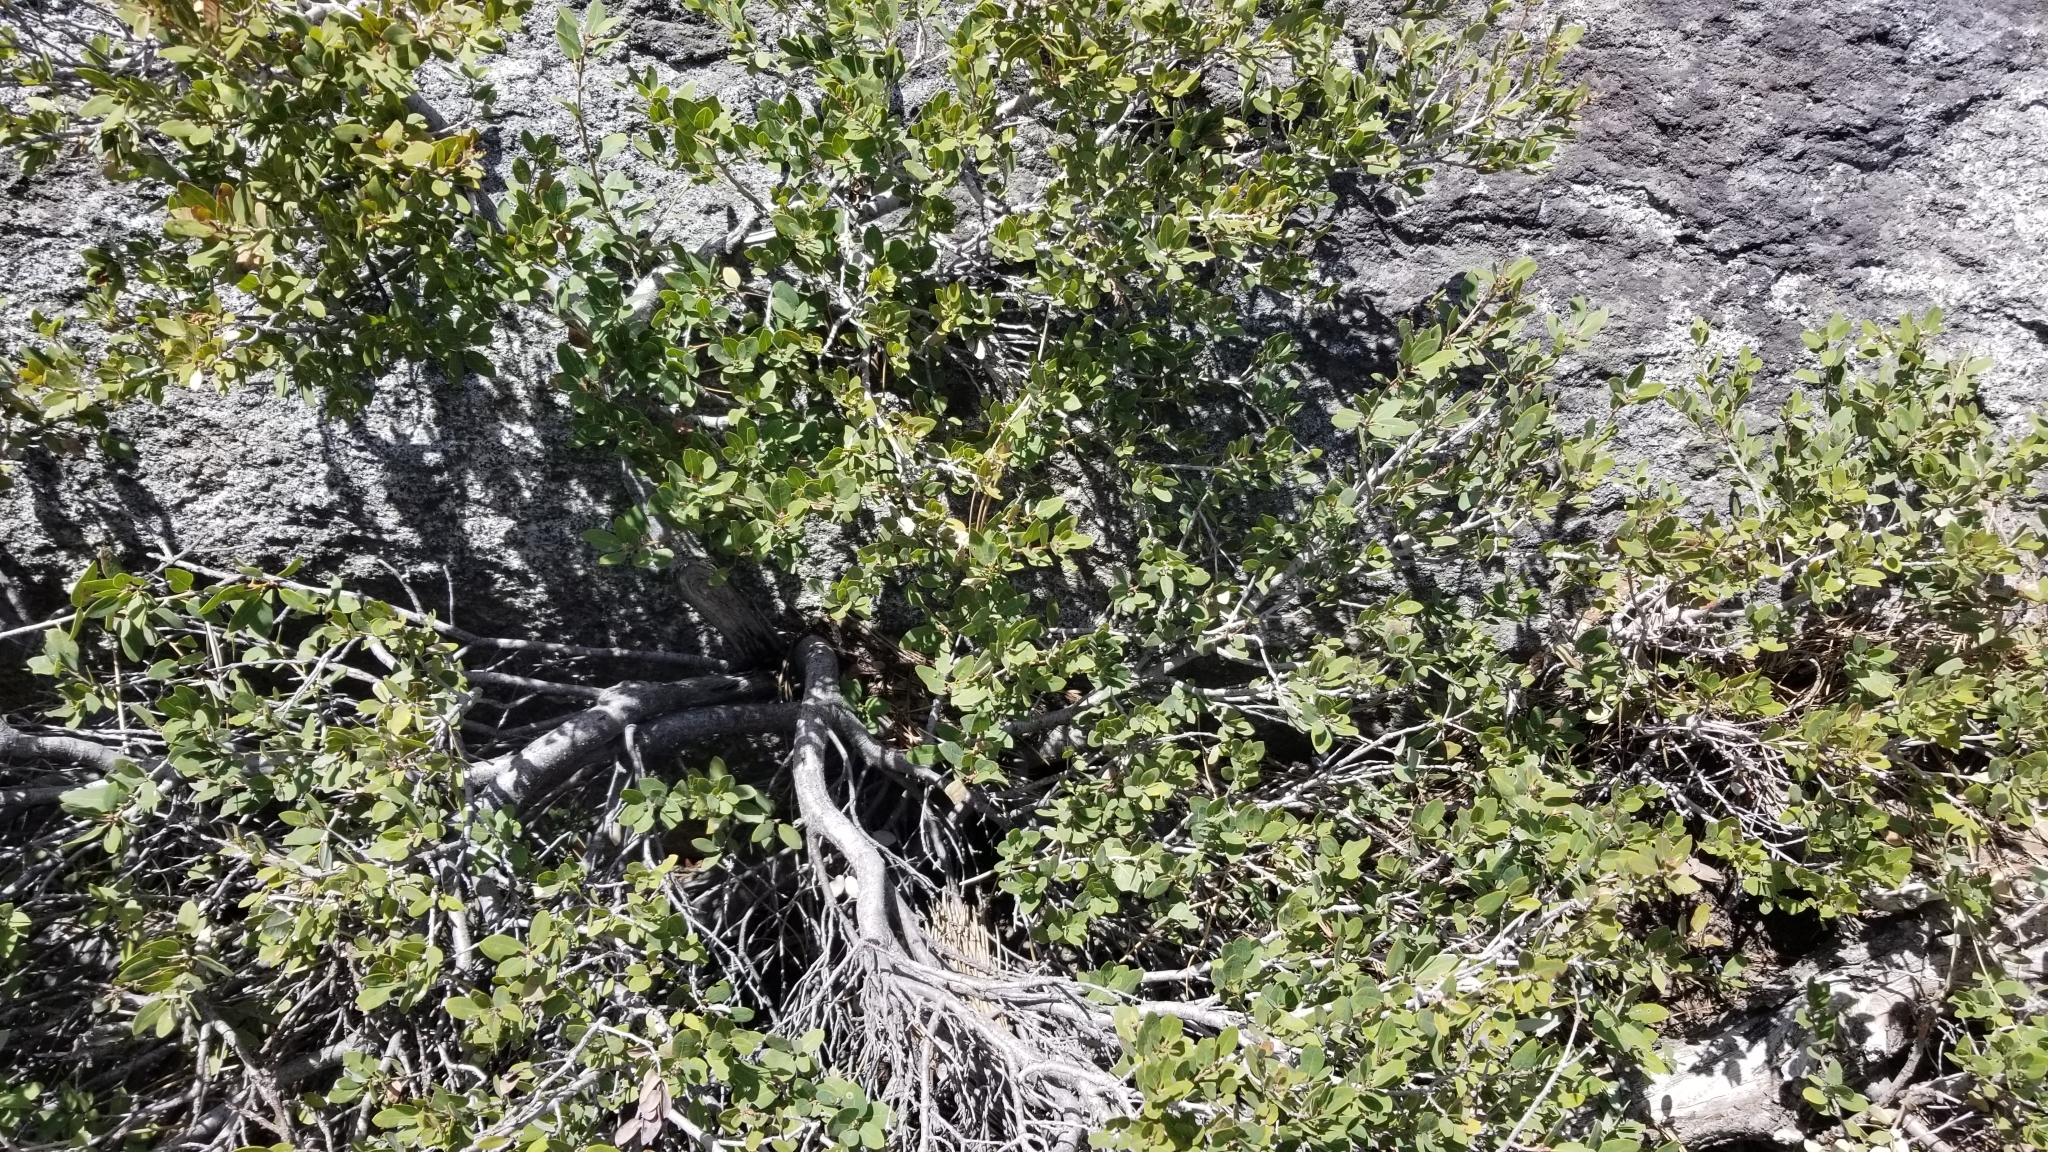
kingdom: Plantae
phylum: Tracheophyta
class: Magnoliopsida
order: Fagales
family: Fagaceae
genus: Quercus
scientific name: Quercus vacciniifolia
